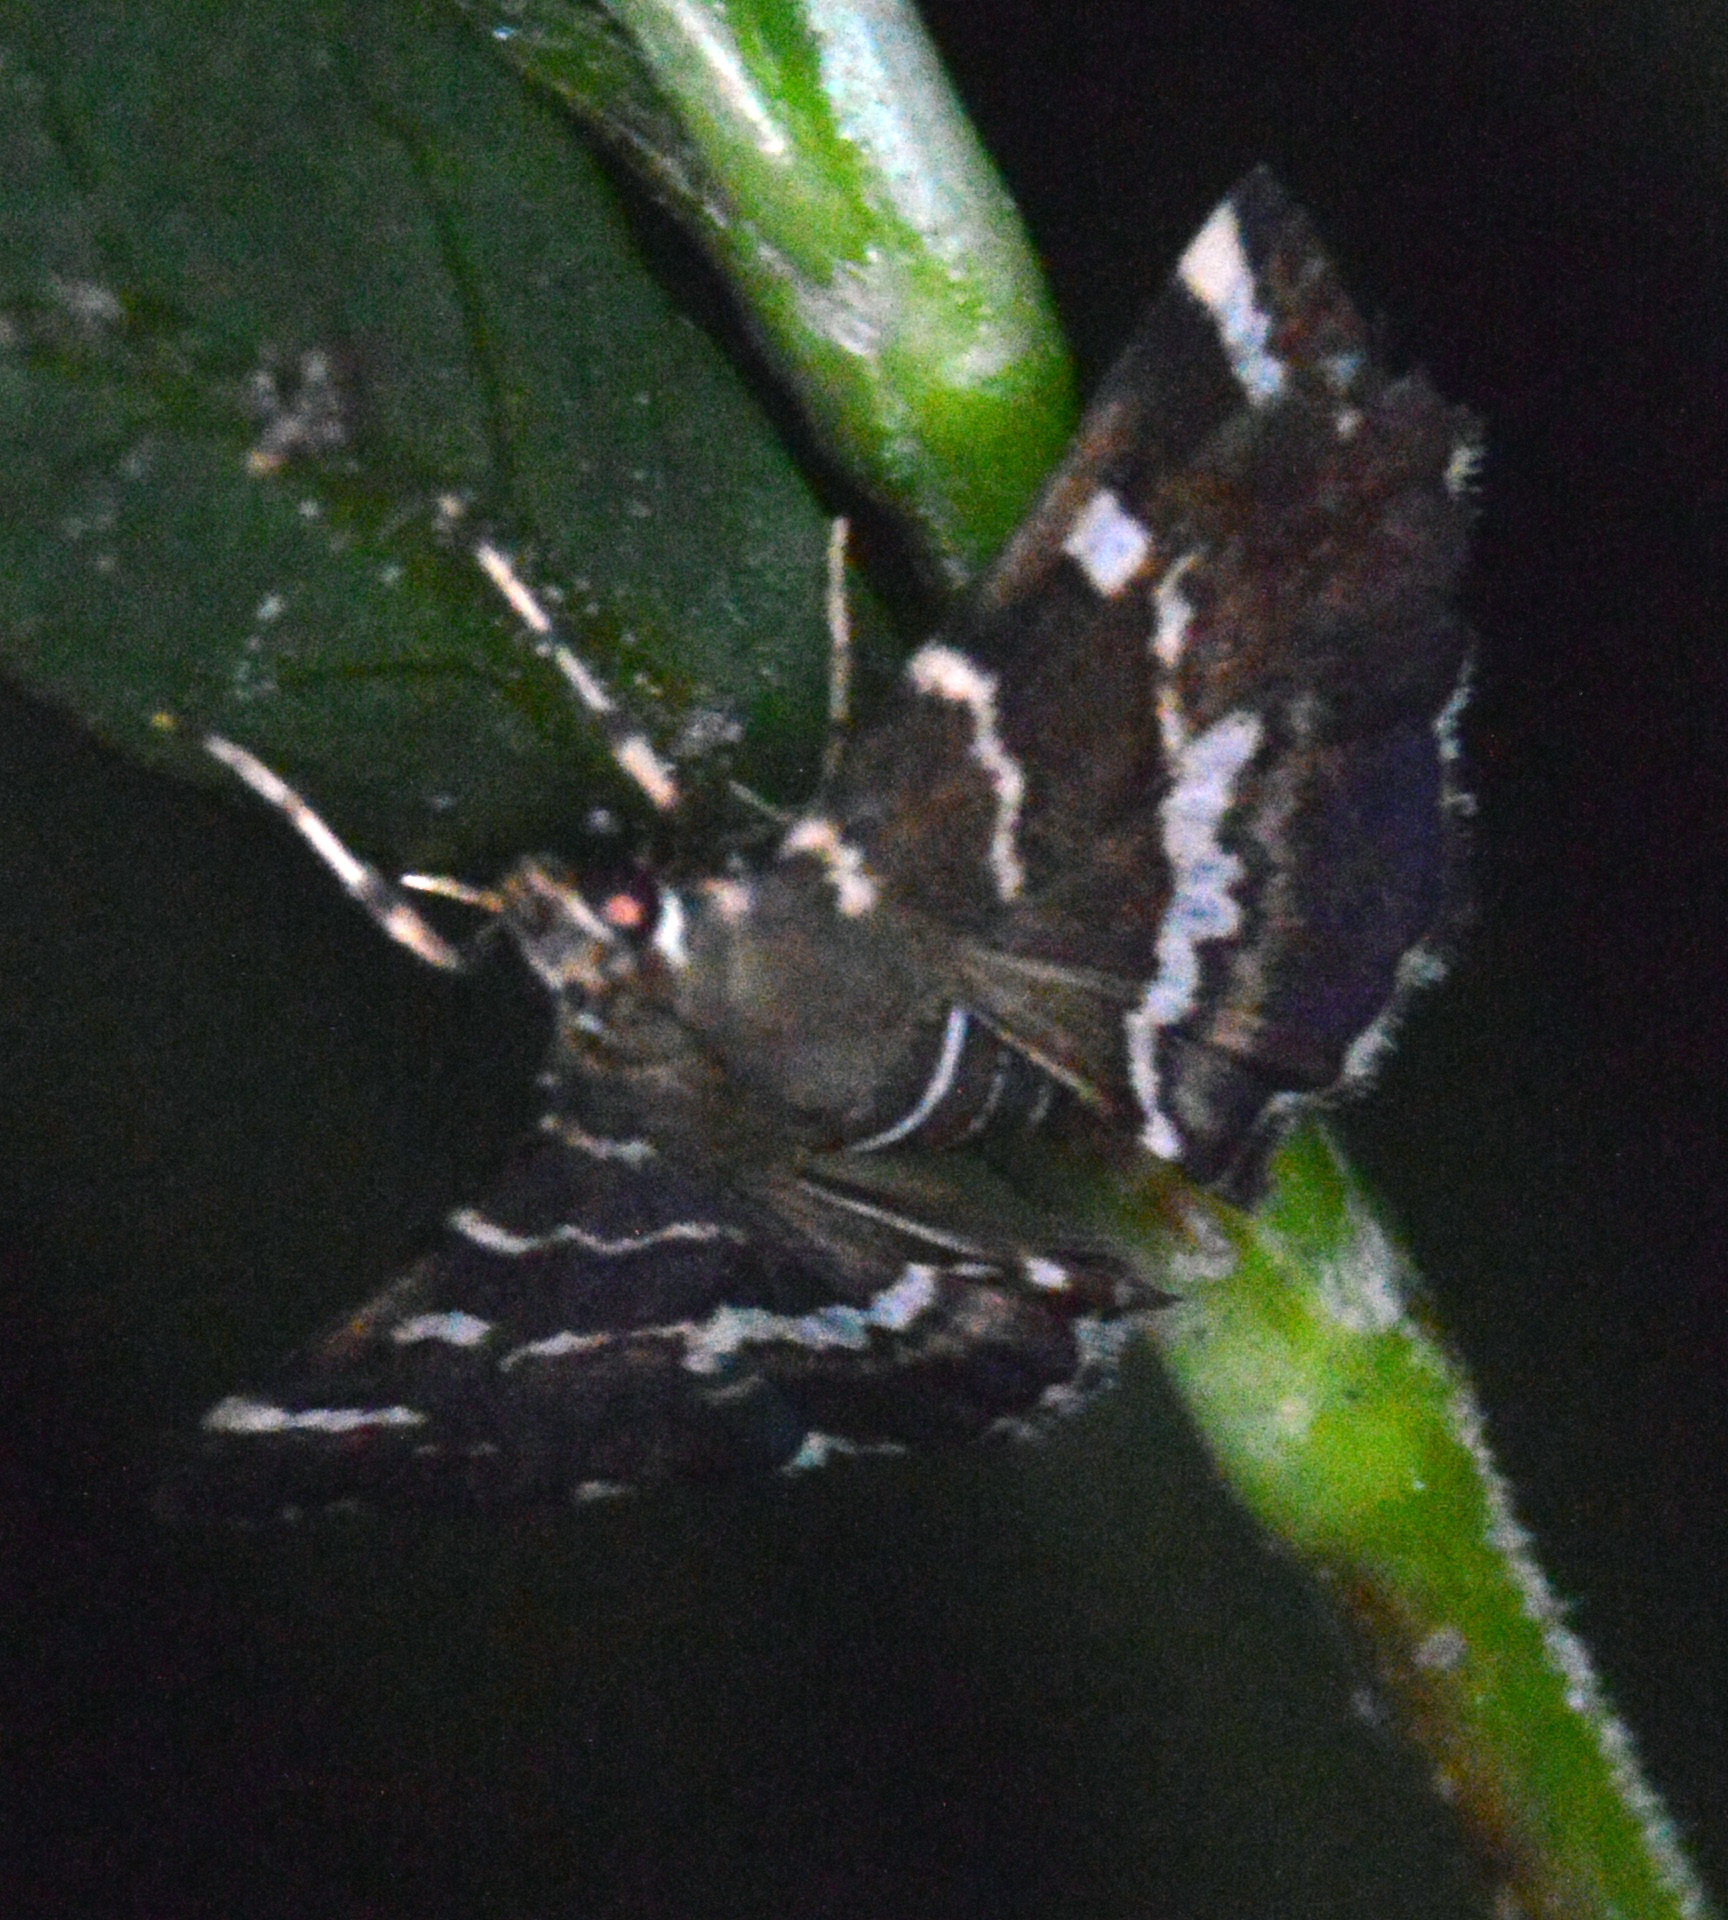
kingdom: Animalia
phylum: Arthropoda
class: Insecta
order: Lepidoptera
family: Crambidae
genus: Hymenia
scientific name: Hymenia perspectalis
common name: Spotted beet webworm
